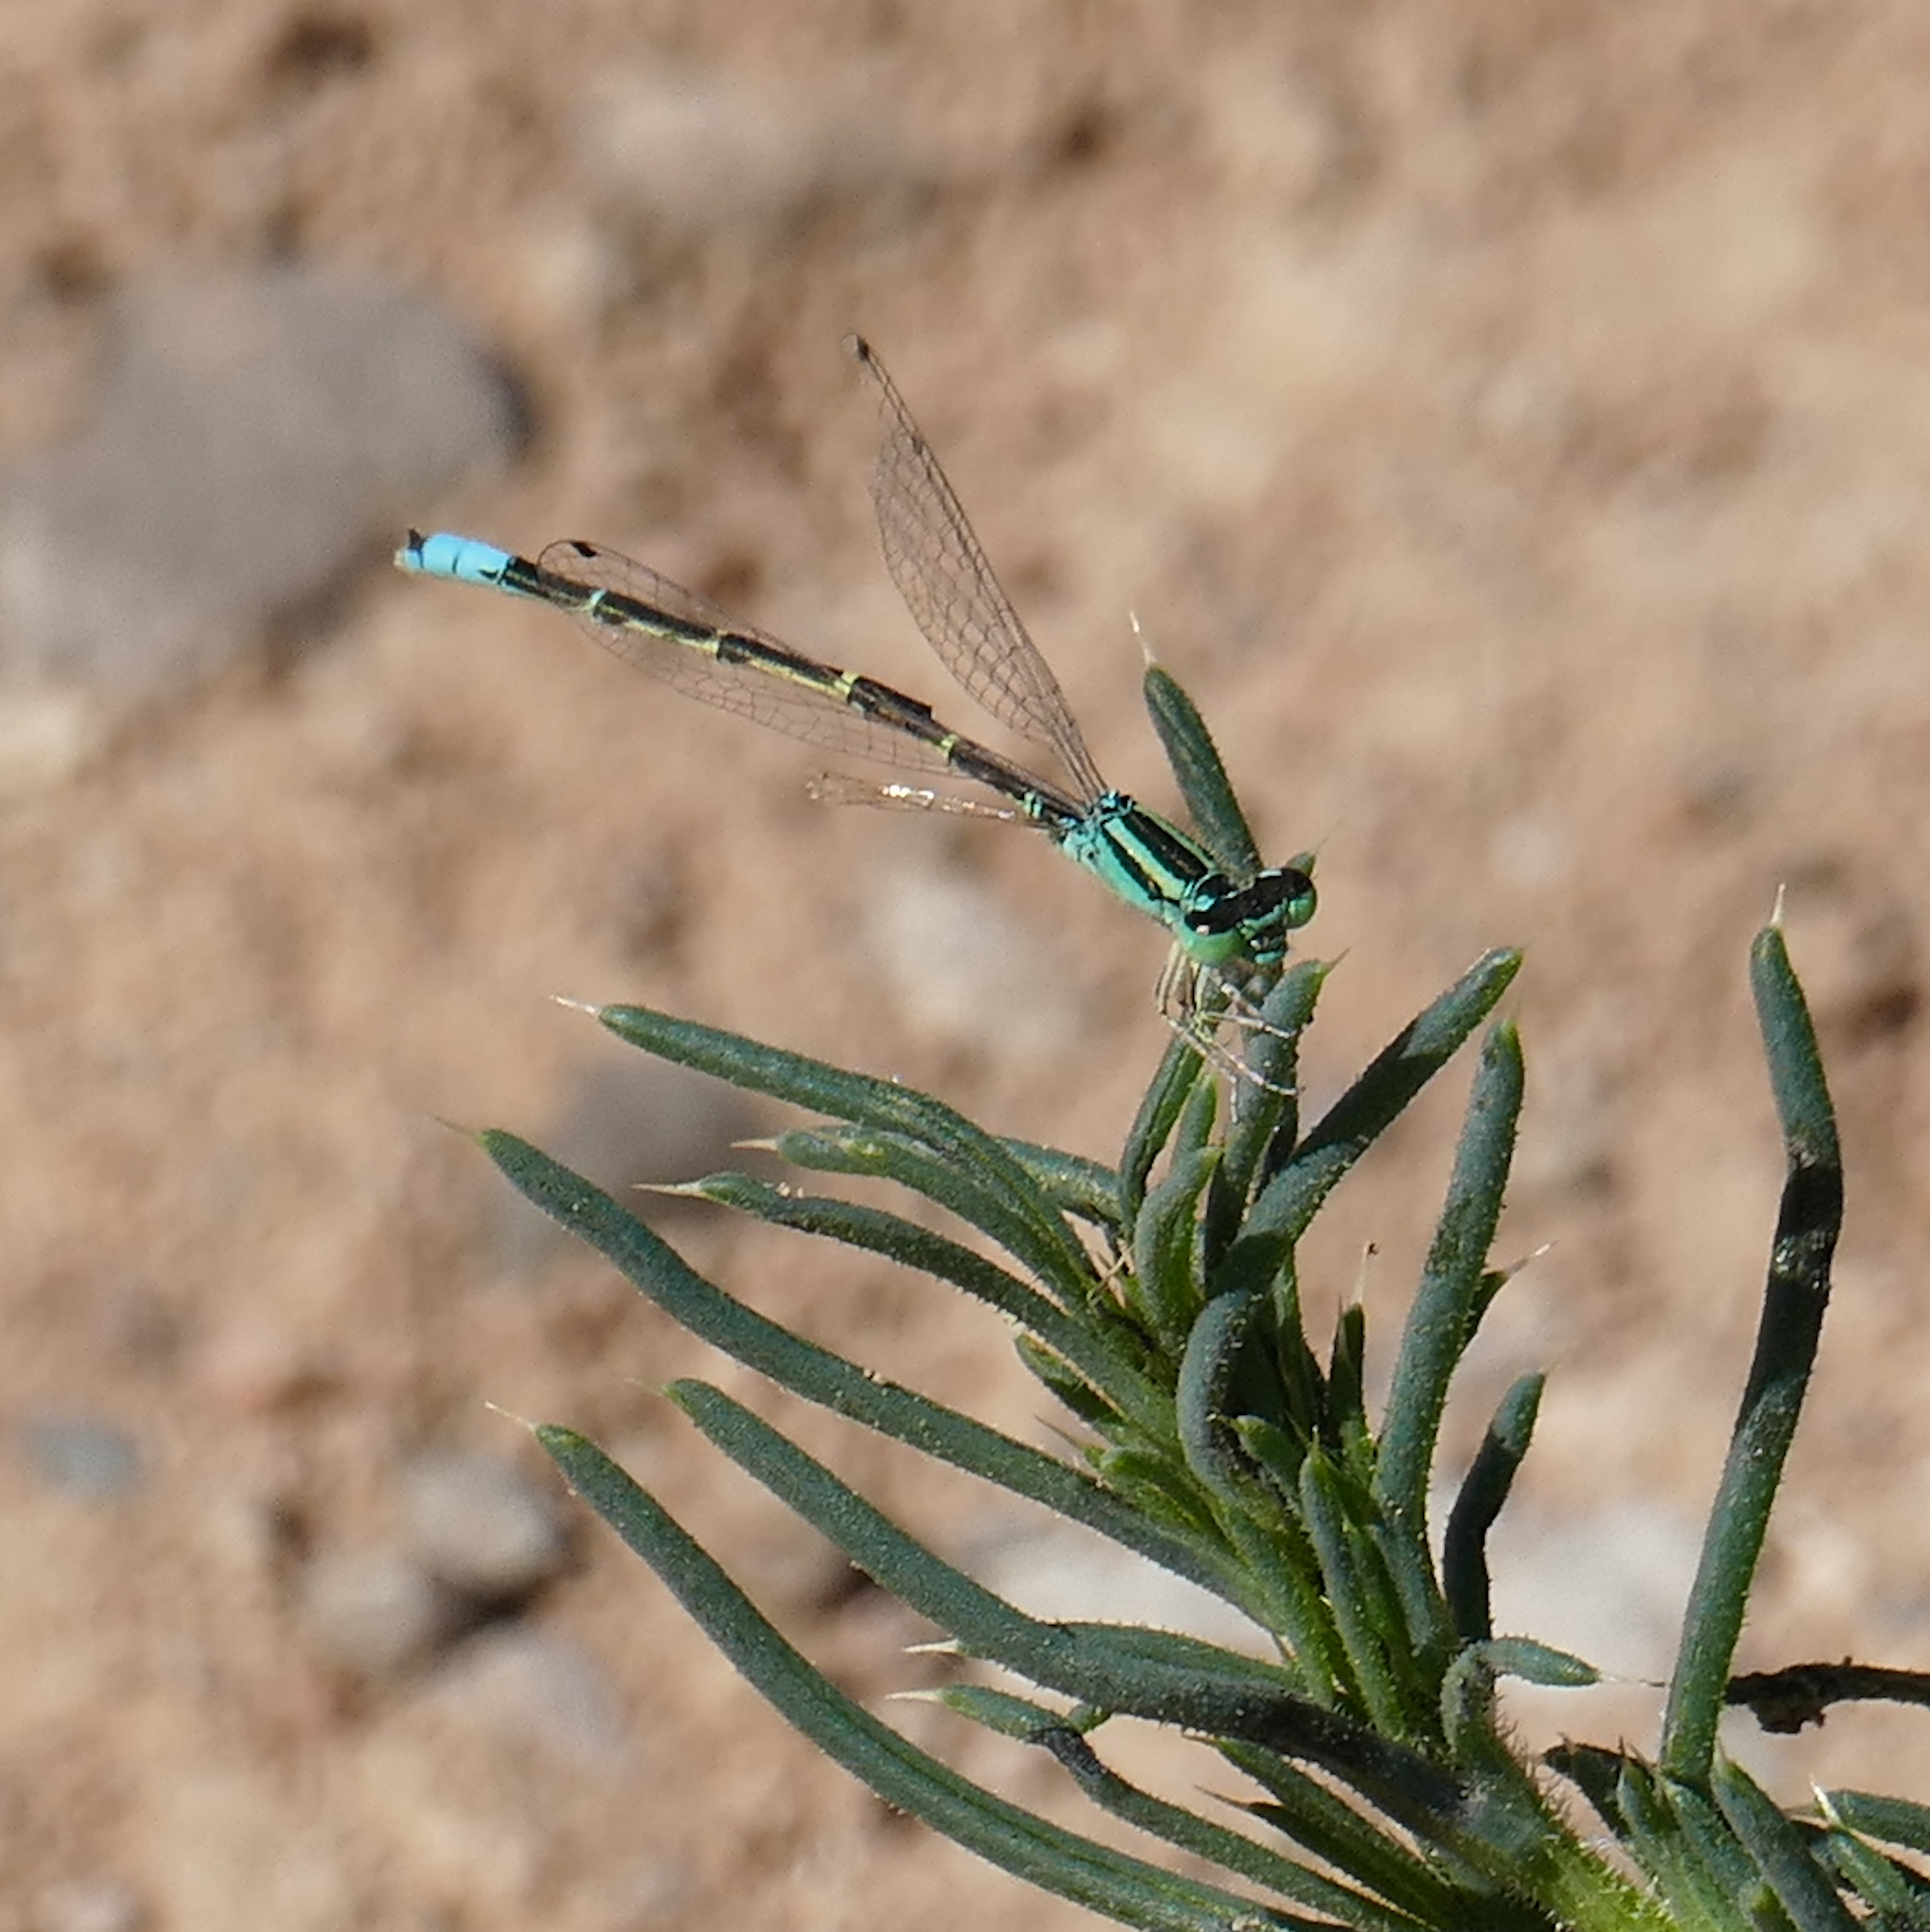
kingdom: Animalia
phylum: Arthropoda
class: Insecta
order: Odonata
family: Coenagrionidae
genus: Ischnura
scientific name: Ischnura demorsa
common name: Mexican forktail
